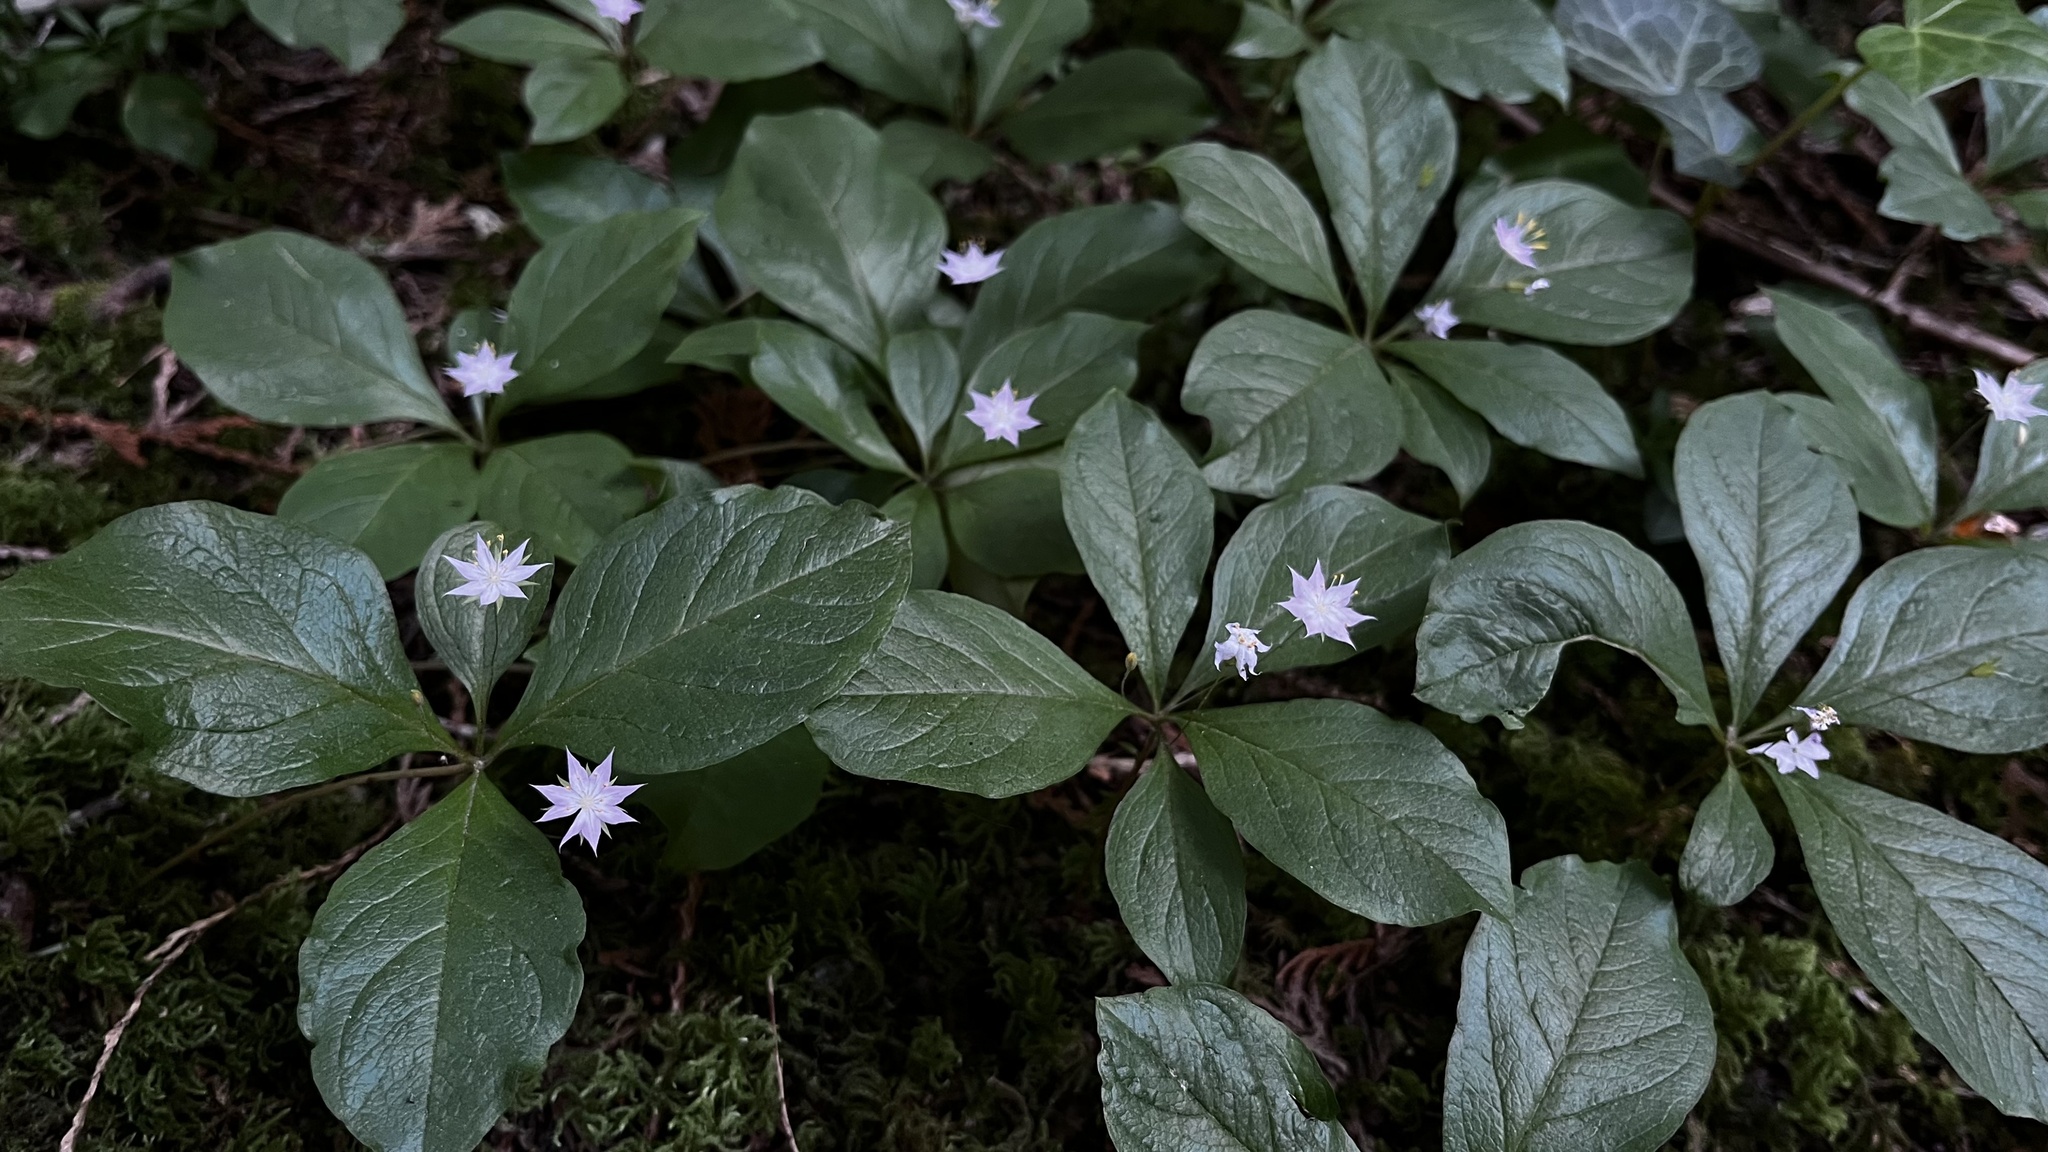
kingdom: Plantae
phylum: Tracheophyta
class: Magnoliopsida
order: Ericales
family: Primulaceae
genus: Lysimachia
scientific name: Lysimachia latifolia
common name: Pacific starflower
